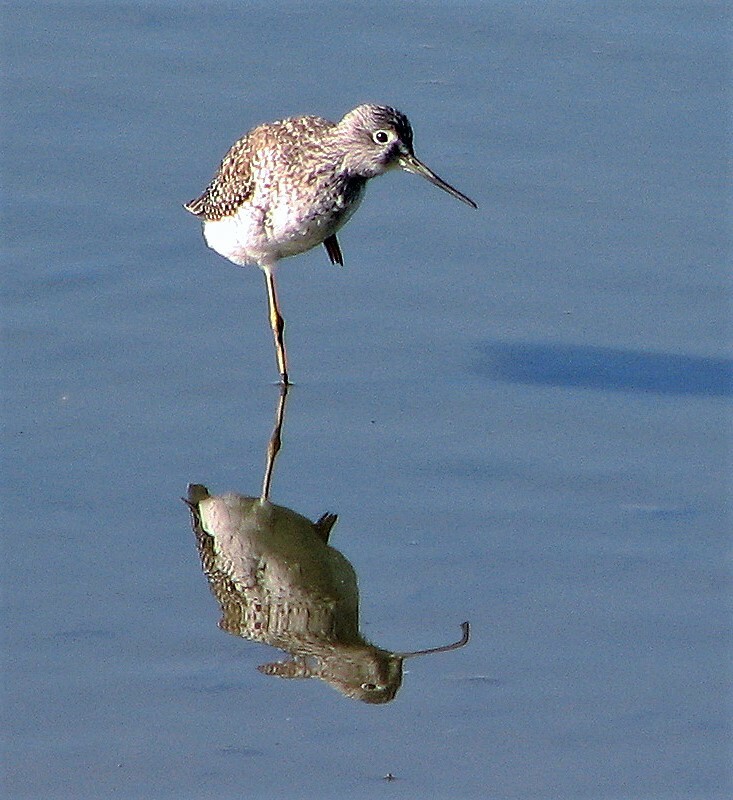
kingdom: Animalia
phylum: Chordata
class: Aves
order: Charadriiformes
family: Scolopacidae
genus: Tringa
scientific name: Tringa melanoleuca
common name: Greater yellowlegs
